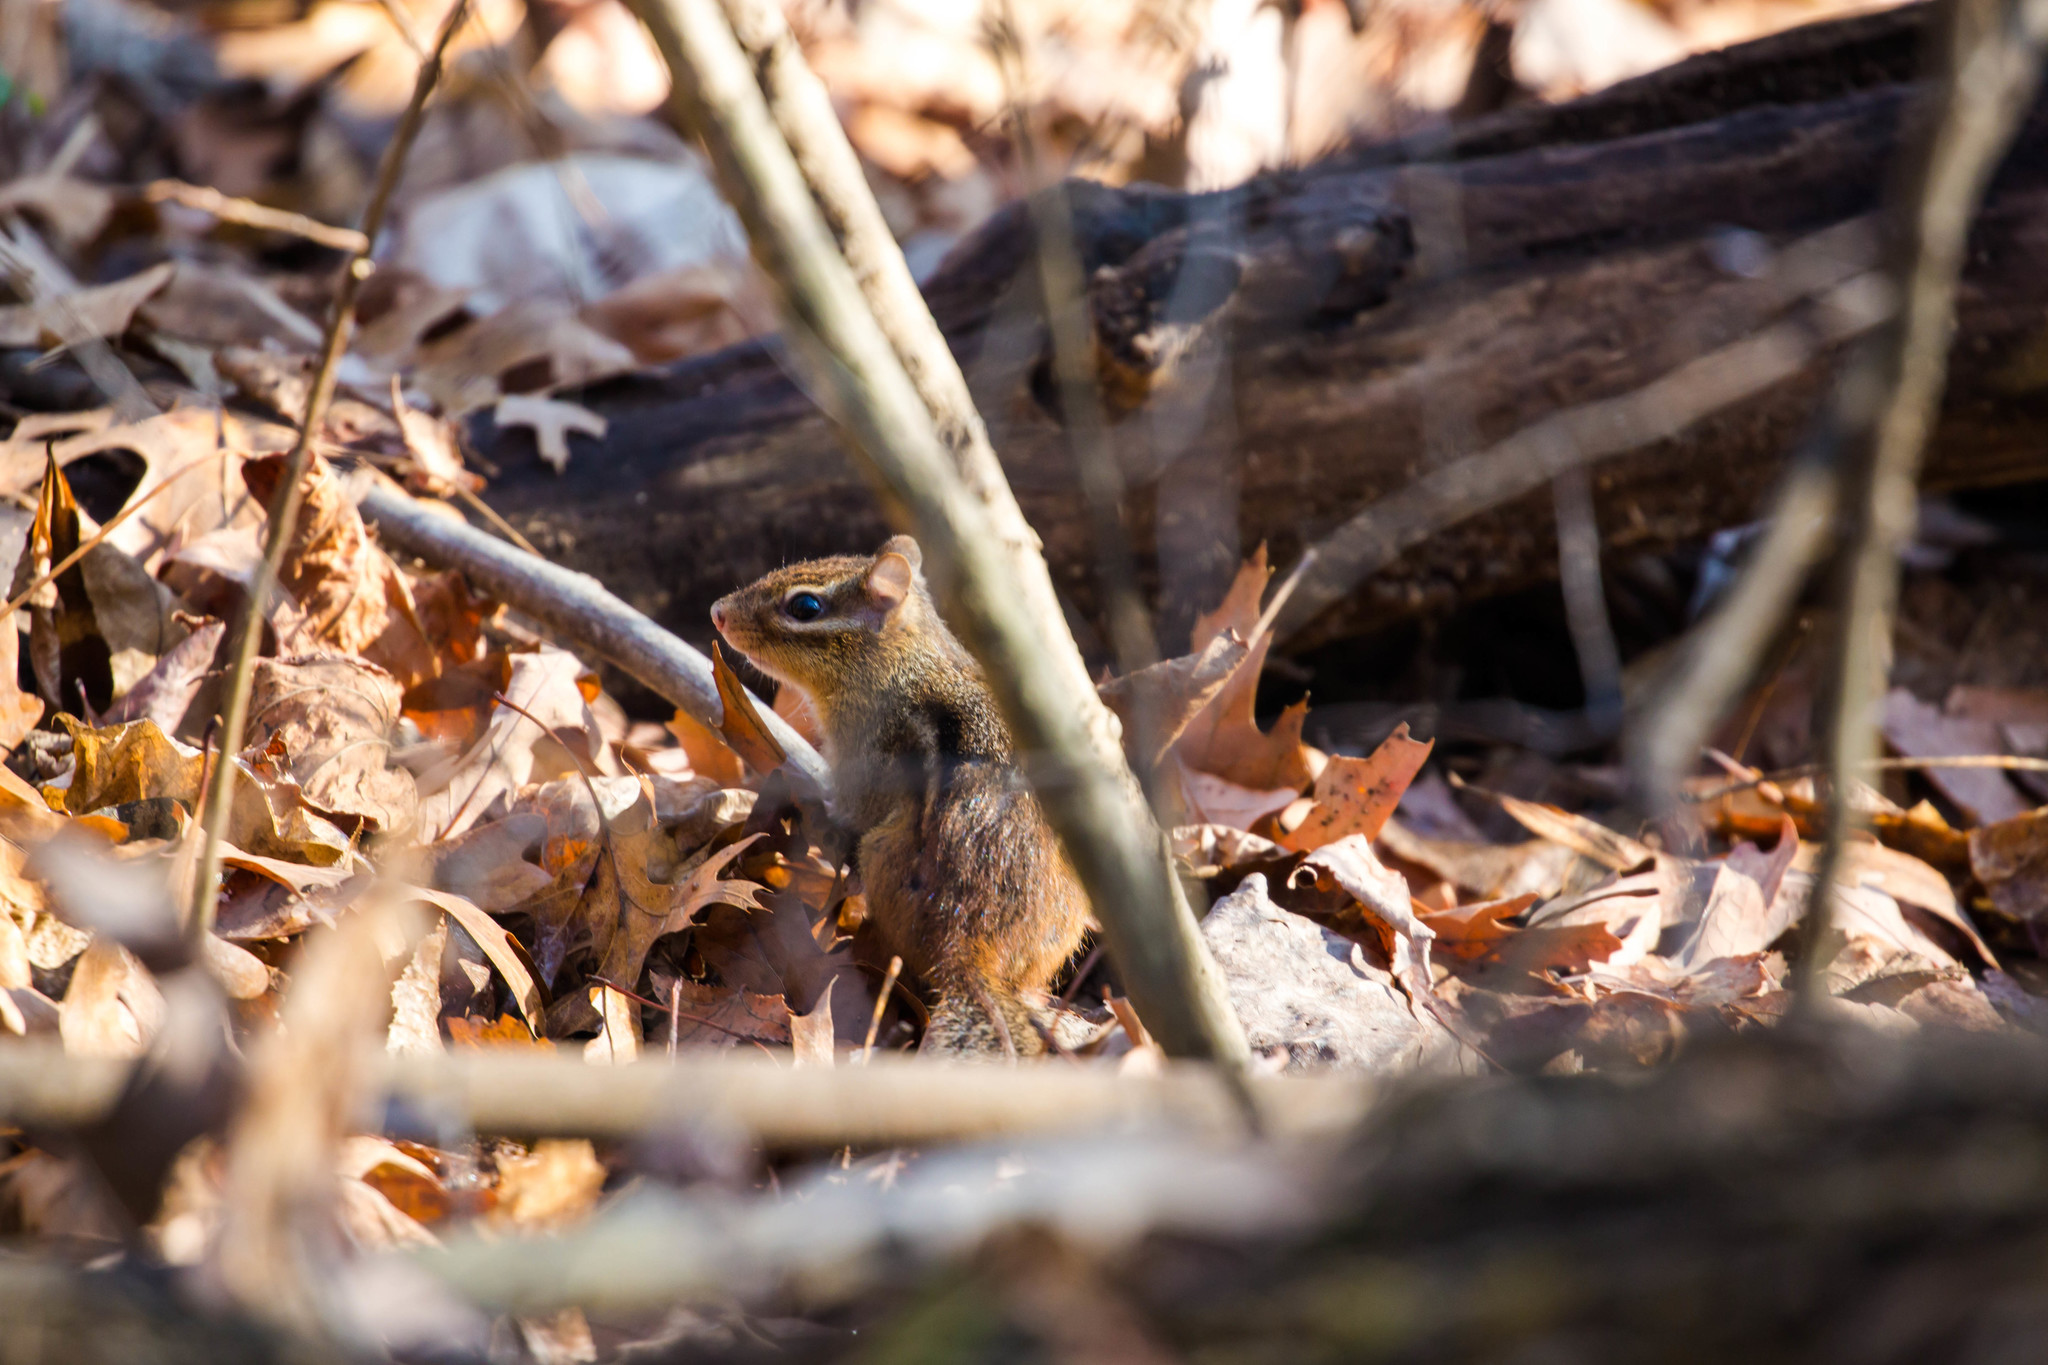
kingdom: Animalia
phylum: Chordata
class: Mammalia
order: Rodentia
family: Sciuridae
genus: Tamias
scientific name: Tamias striatus
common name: Eastern chipmunk
